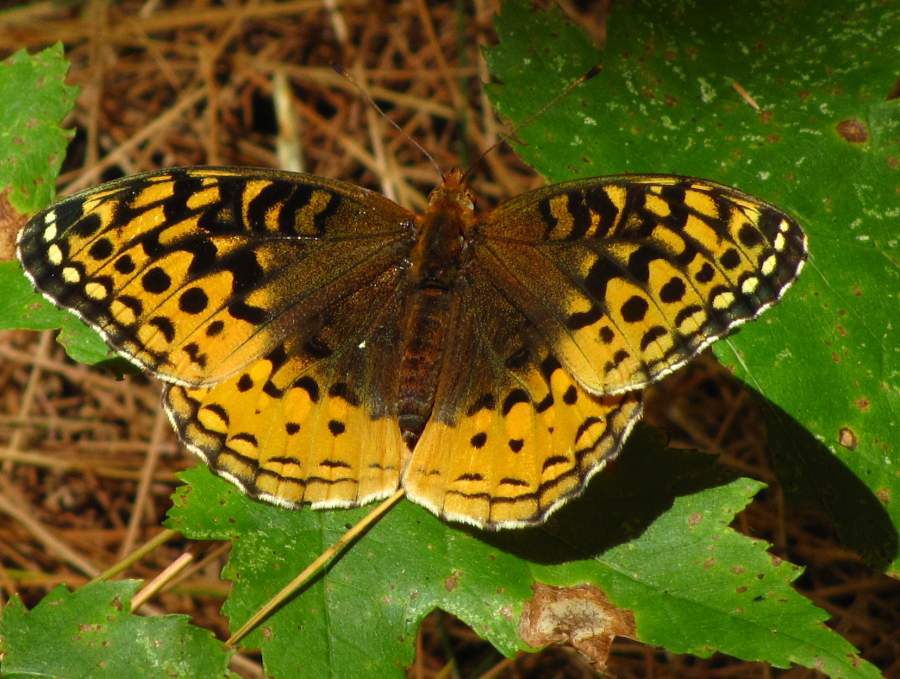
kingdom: Animalia
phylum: Arthropoda
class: Insecta
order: Lepidoptera
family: Nymphalidae
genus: Speyeria
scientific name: Speyeria cybele
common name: Great spangled fritillary
